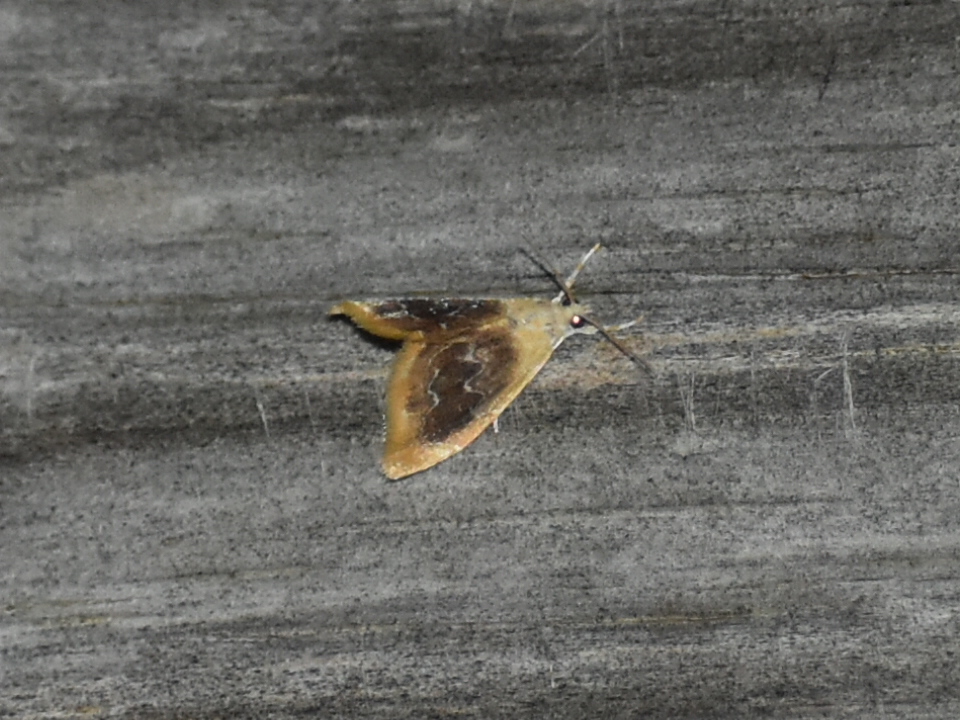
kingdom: Animalia
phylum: Arthropoda
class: Insecta
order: Lepidoptera
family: Crambidae
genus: Glaphyria
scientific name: Glaphyria cappsi
